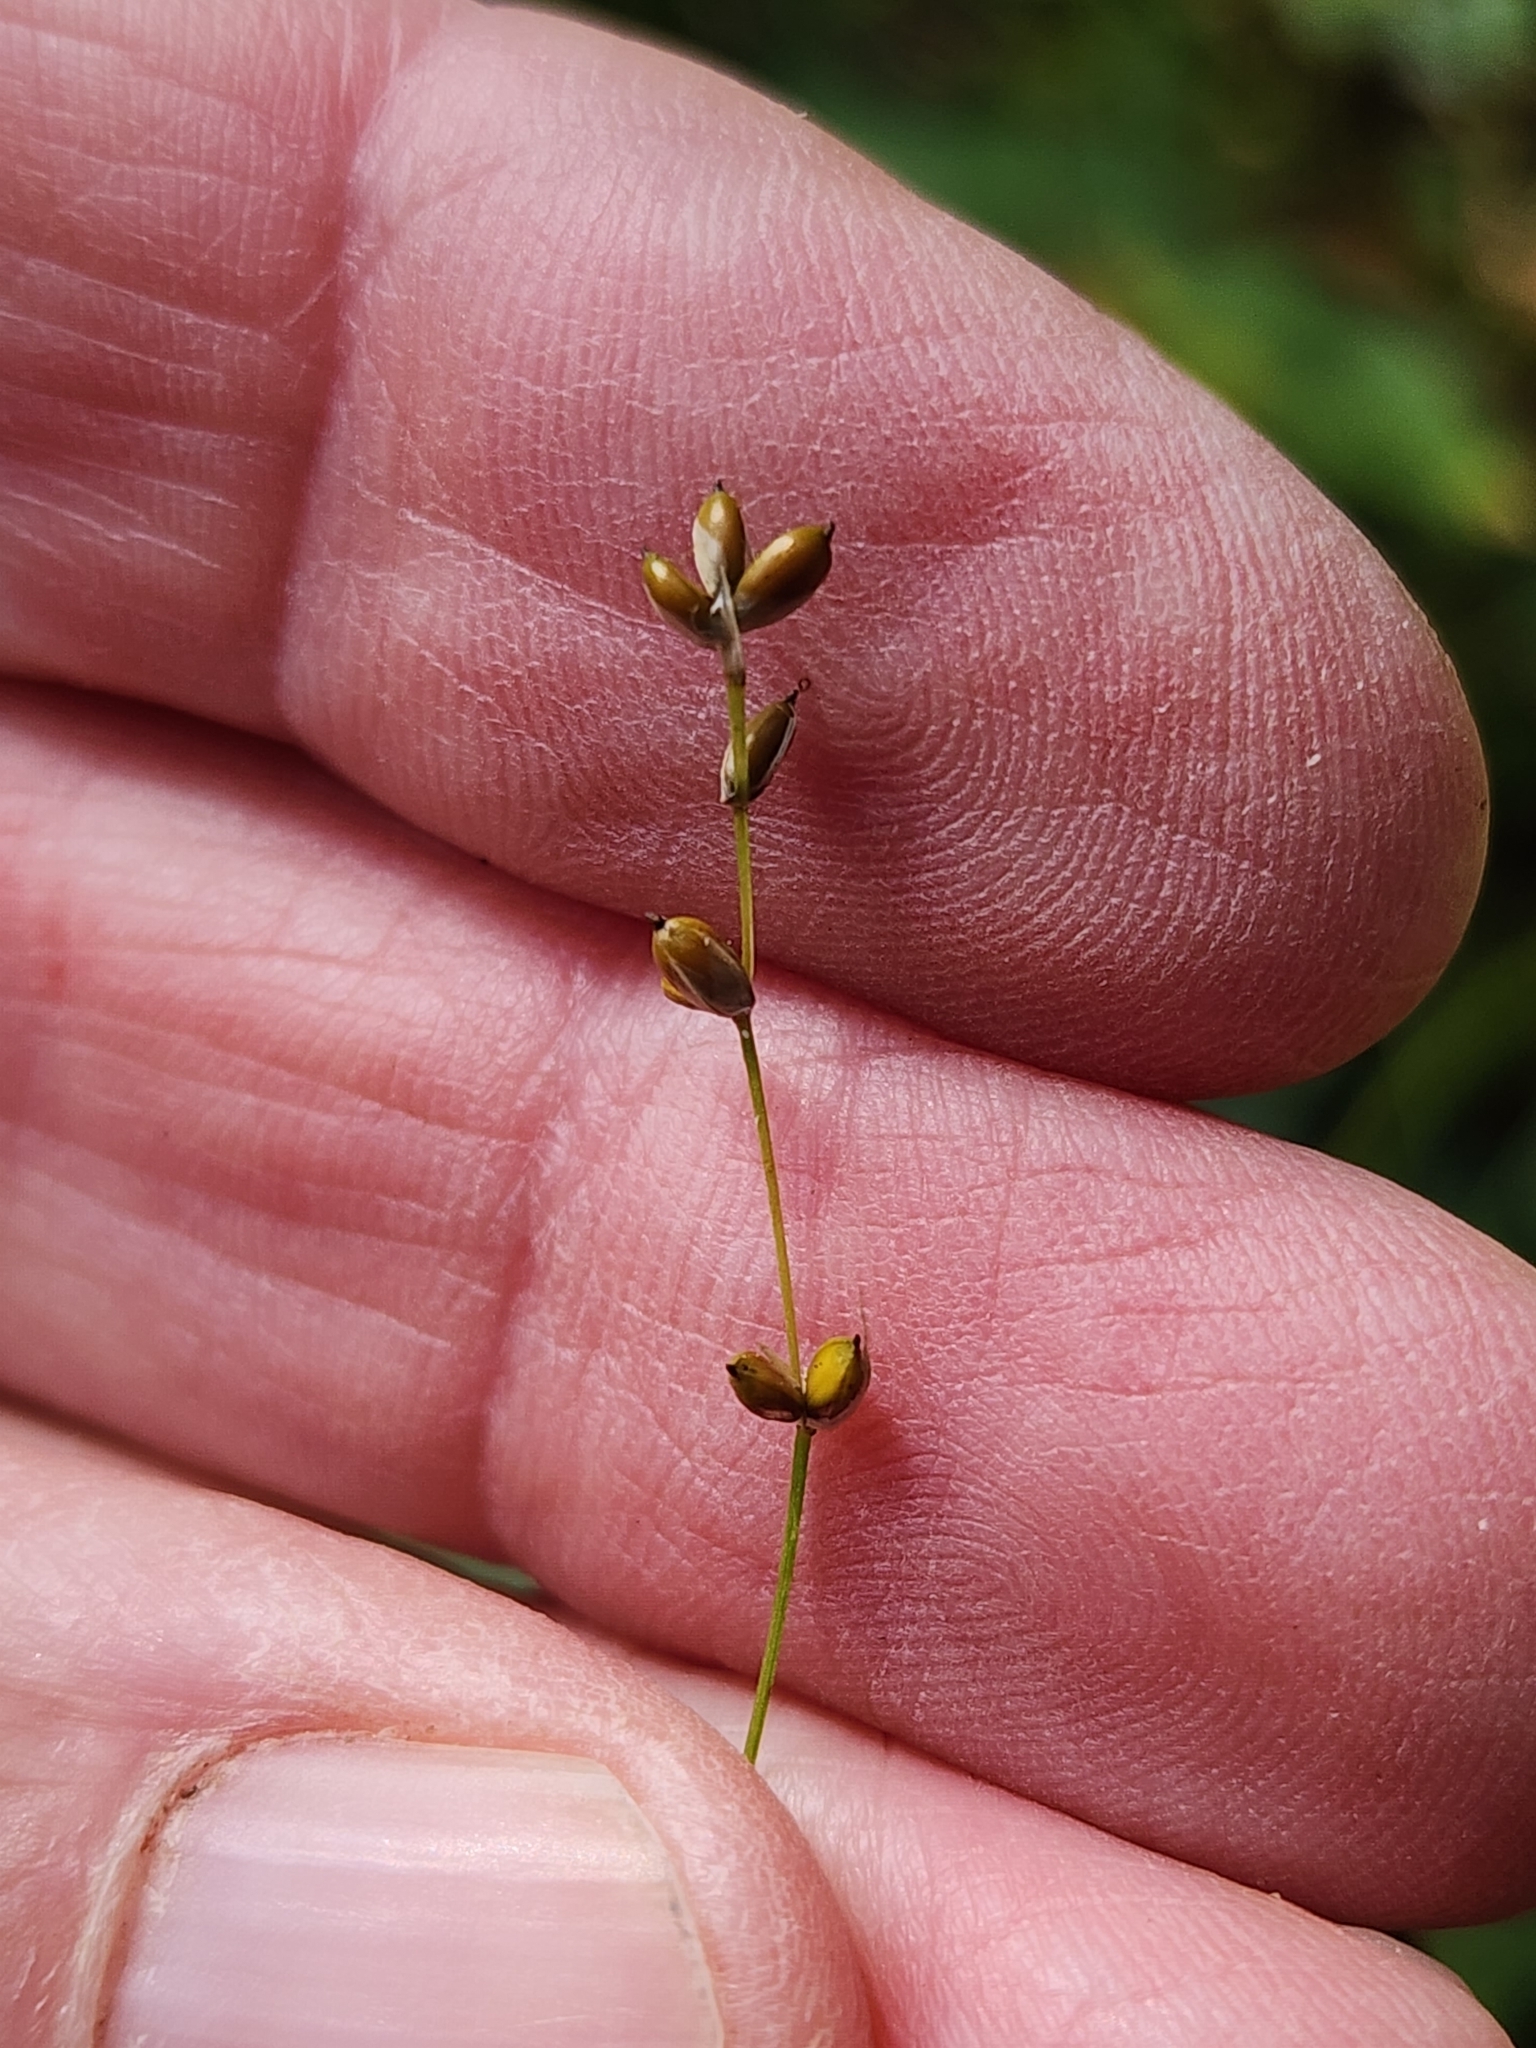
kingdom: Plantae
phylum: Tracheophyta
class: Liliopsida
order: Poales
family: Cyperaceae
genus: Carex
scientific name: Carex disperma
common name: Short-leaved sedge
